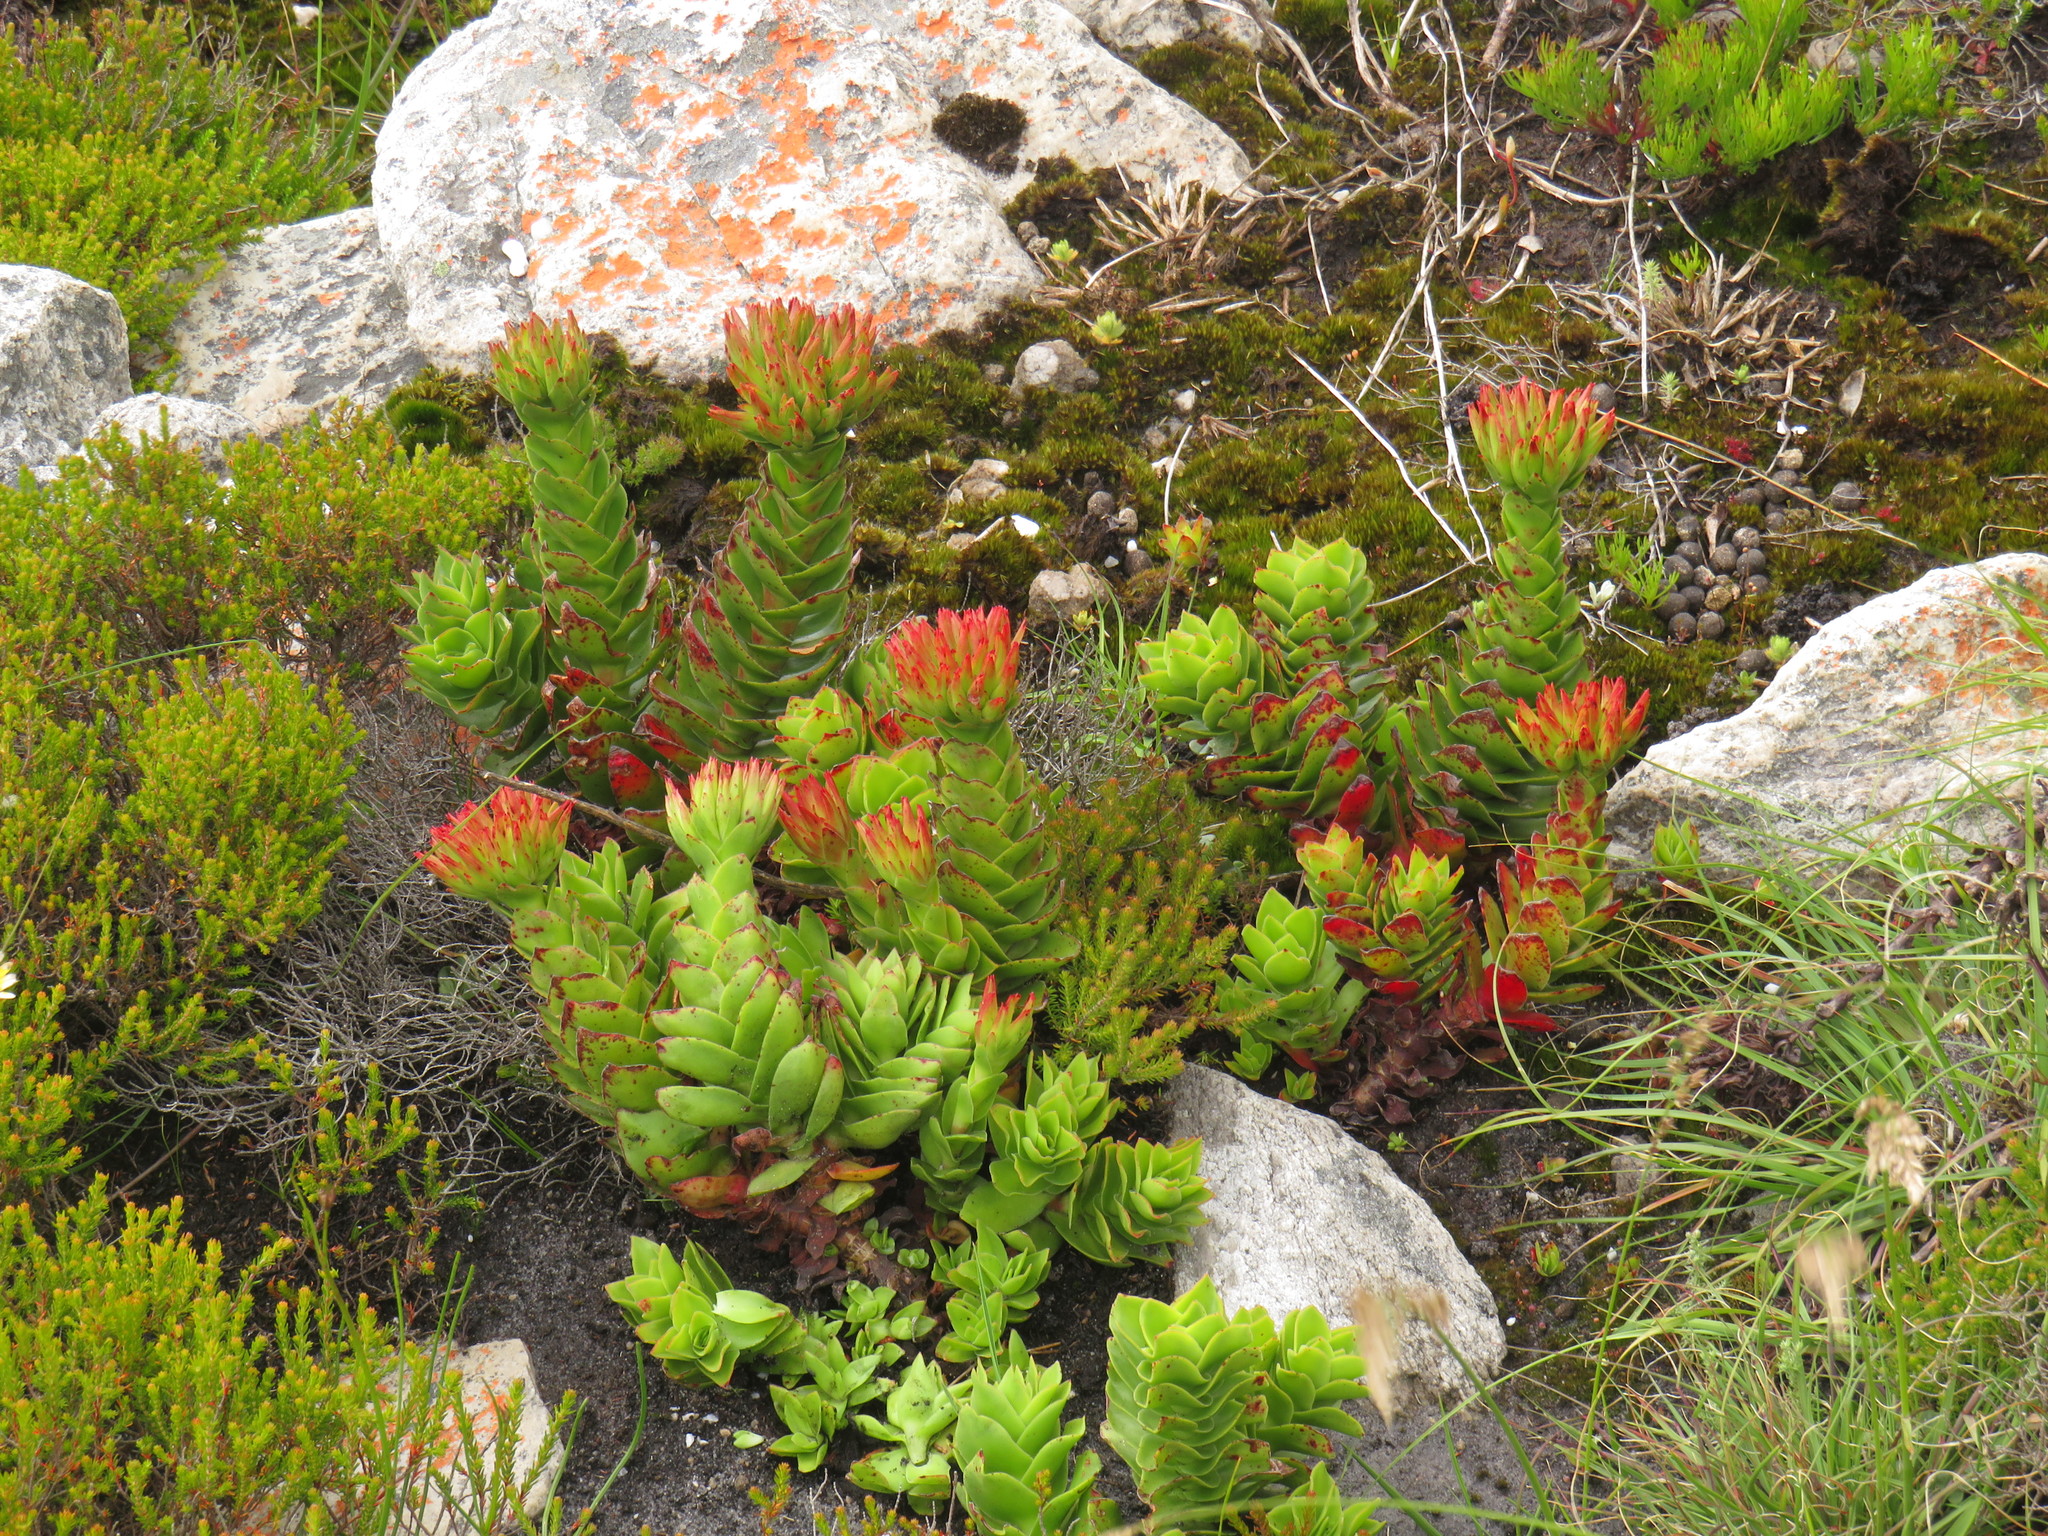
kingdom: Plantae
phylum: Tracheophyta
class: Magnoliopsida
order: Saxifragales
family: Crassulaceae
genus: Crassula
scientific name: Crassula coccinea
